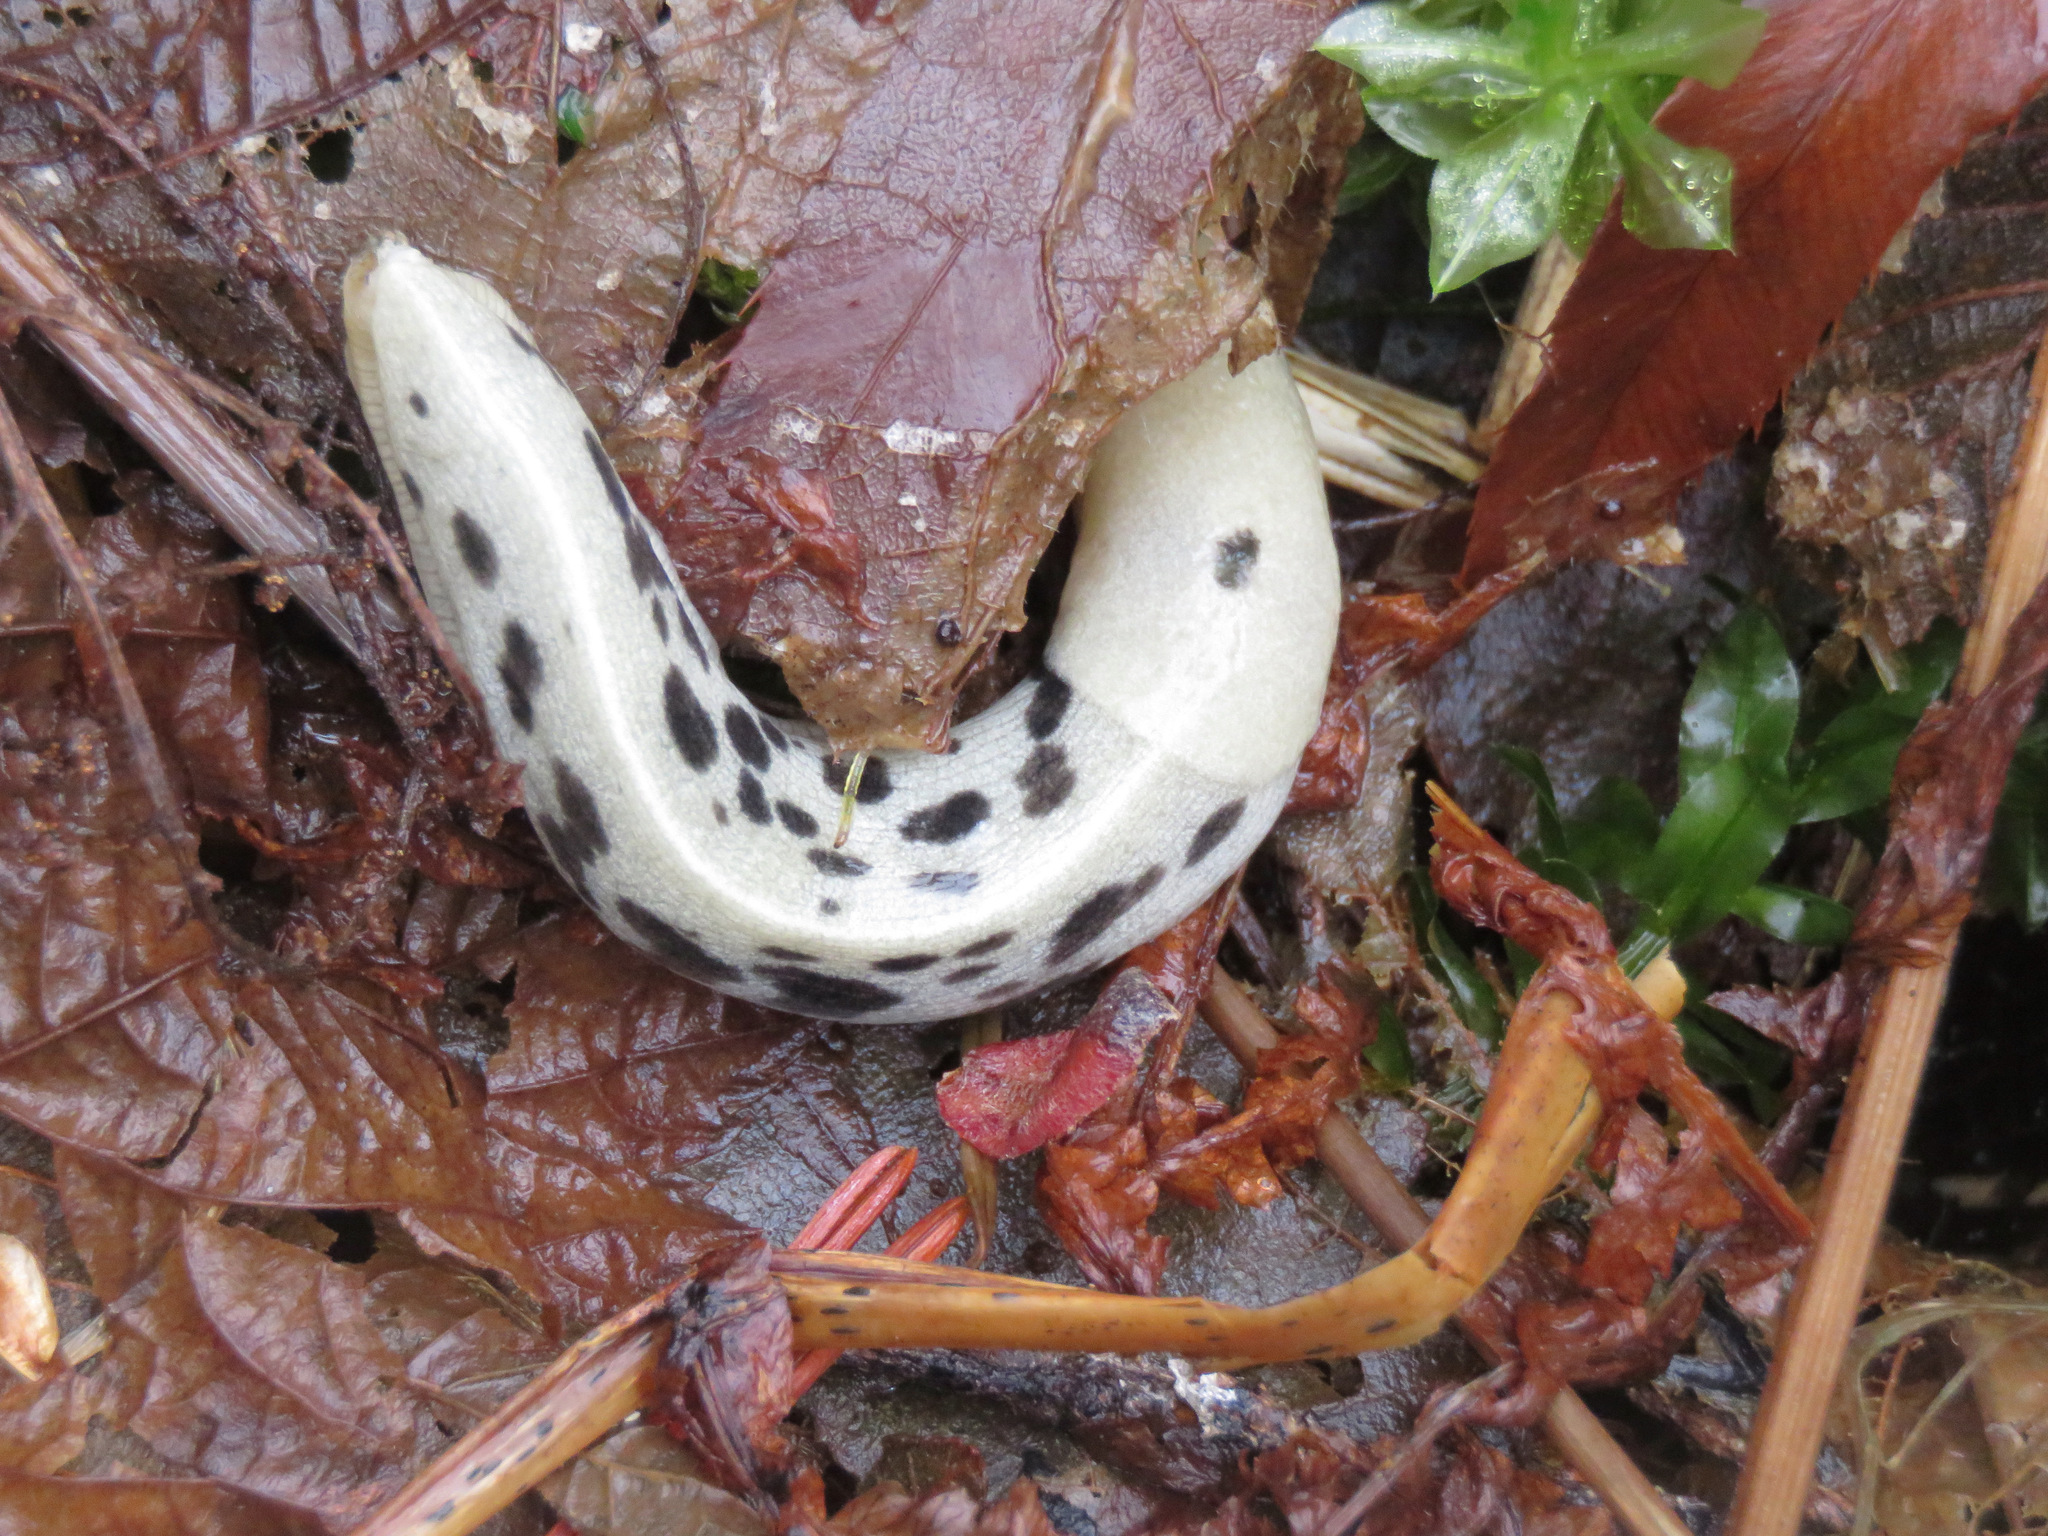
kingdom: Animalia
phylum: Mollusca
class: Gastropoda
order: Stylommatophora
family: Ariolimacidae
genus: Ariolimax
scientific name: Ariolimax columbianus
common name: Pacific banana slug
